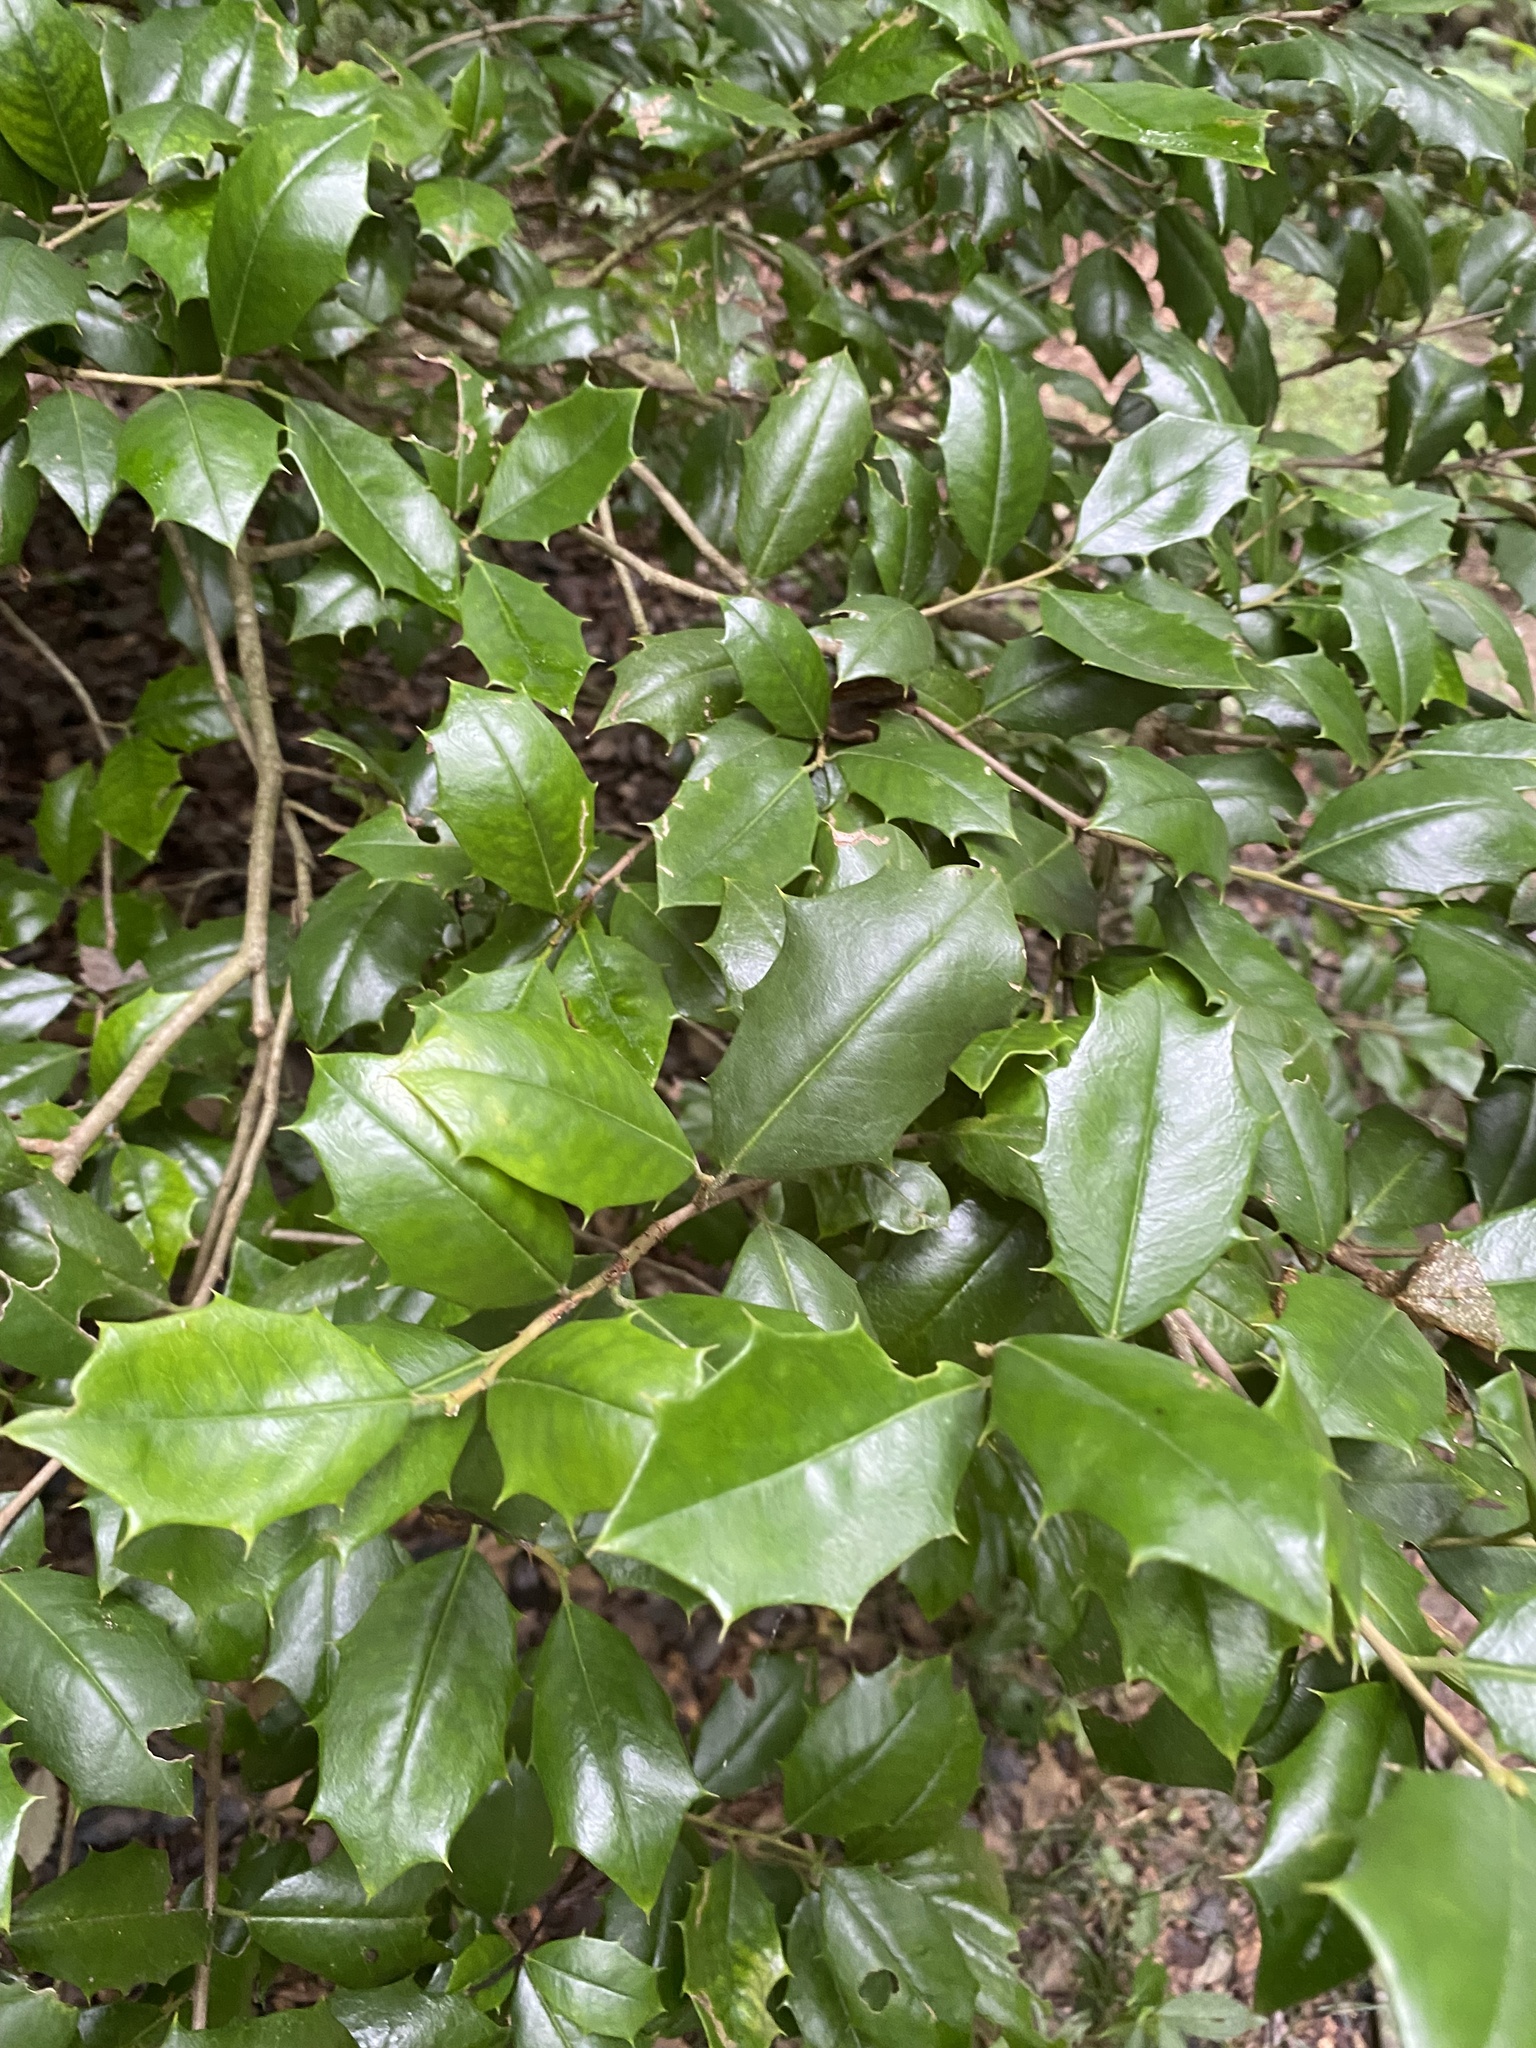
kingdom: Plantae
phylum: Tracheophyta
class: Magnoliopsida
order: Aquifoliales
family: Aquifoliaceae
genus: Ilex
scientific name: Ilex opaca
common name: American holly
